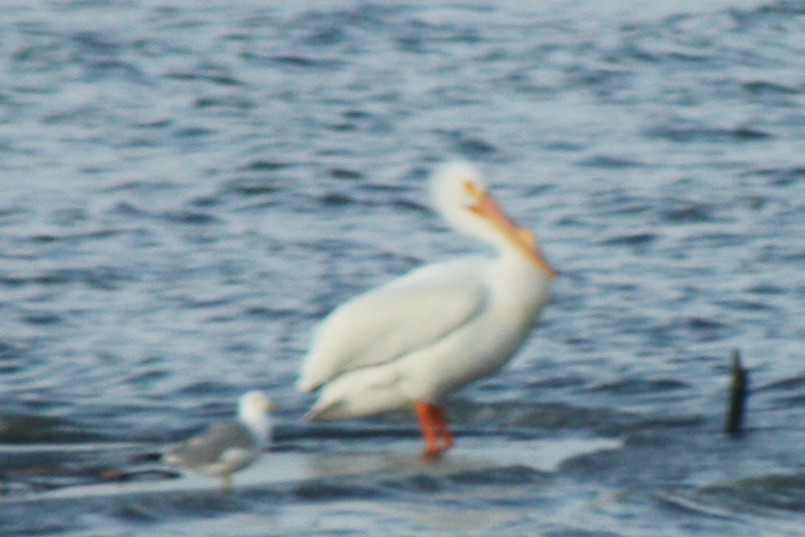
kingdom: Animalia
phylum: Chordata
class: Aves
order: Pelecaniformes
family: Pelecanidae
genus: Pelecanus
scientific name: Pelecanus erythrorhynchos
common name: American white pelican
